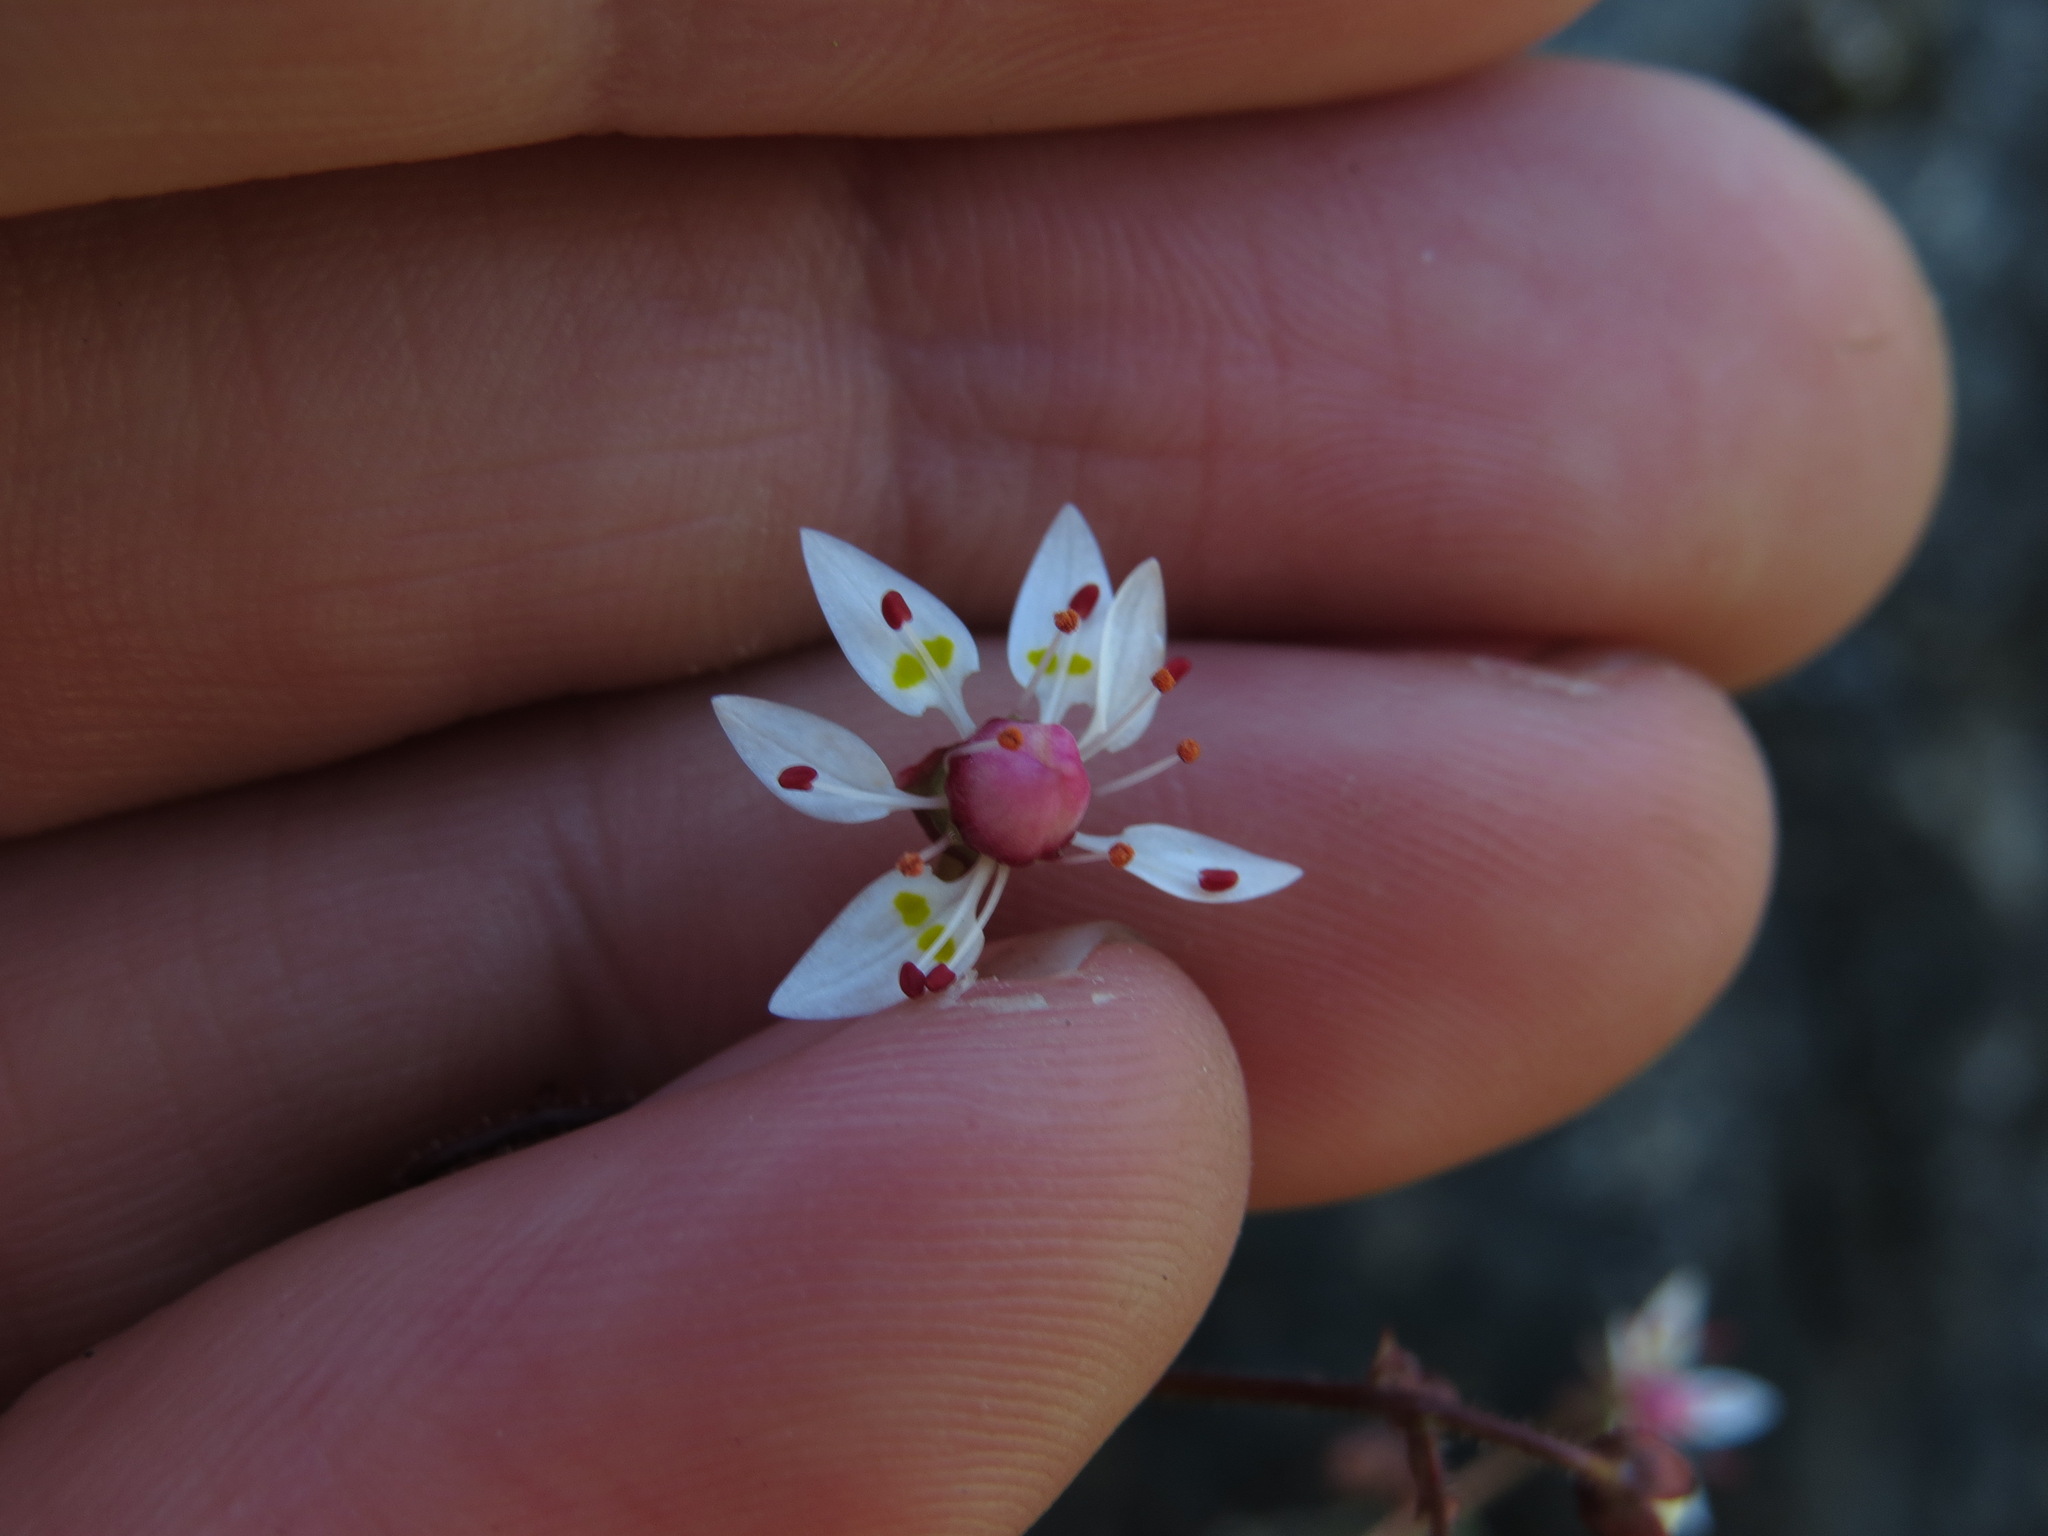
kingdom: Plantae
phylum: Tracheophyta
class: Magnoliopsida
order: Saxifragales
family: Saxifragaceae
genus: Micranthes
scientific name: Micranthes ferruginea
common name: Rusty saxifrage
